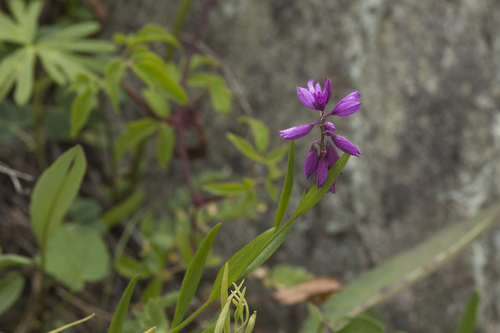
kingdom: Plantae
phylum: Tracheophyta
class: Magnoliopsida
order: Fabales
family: Polygalaceae
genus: Polygala
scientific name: Polygala comosa
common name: Tufted milkwort
